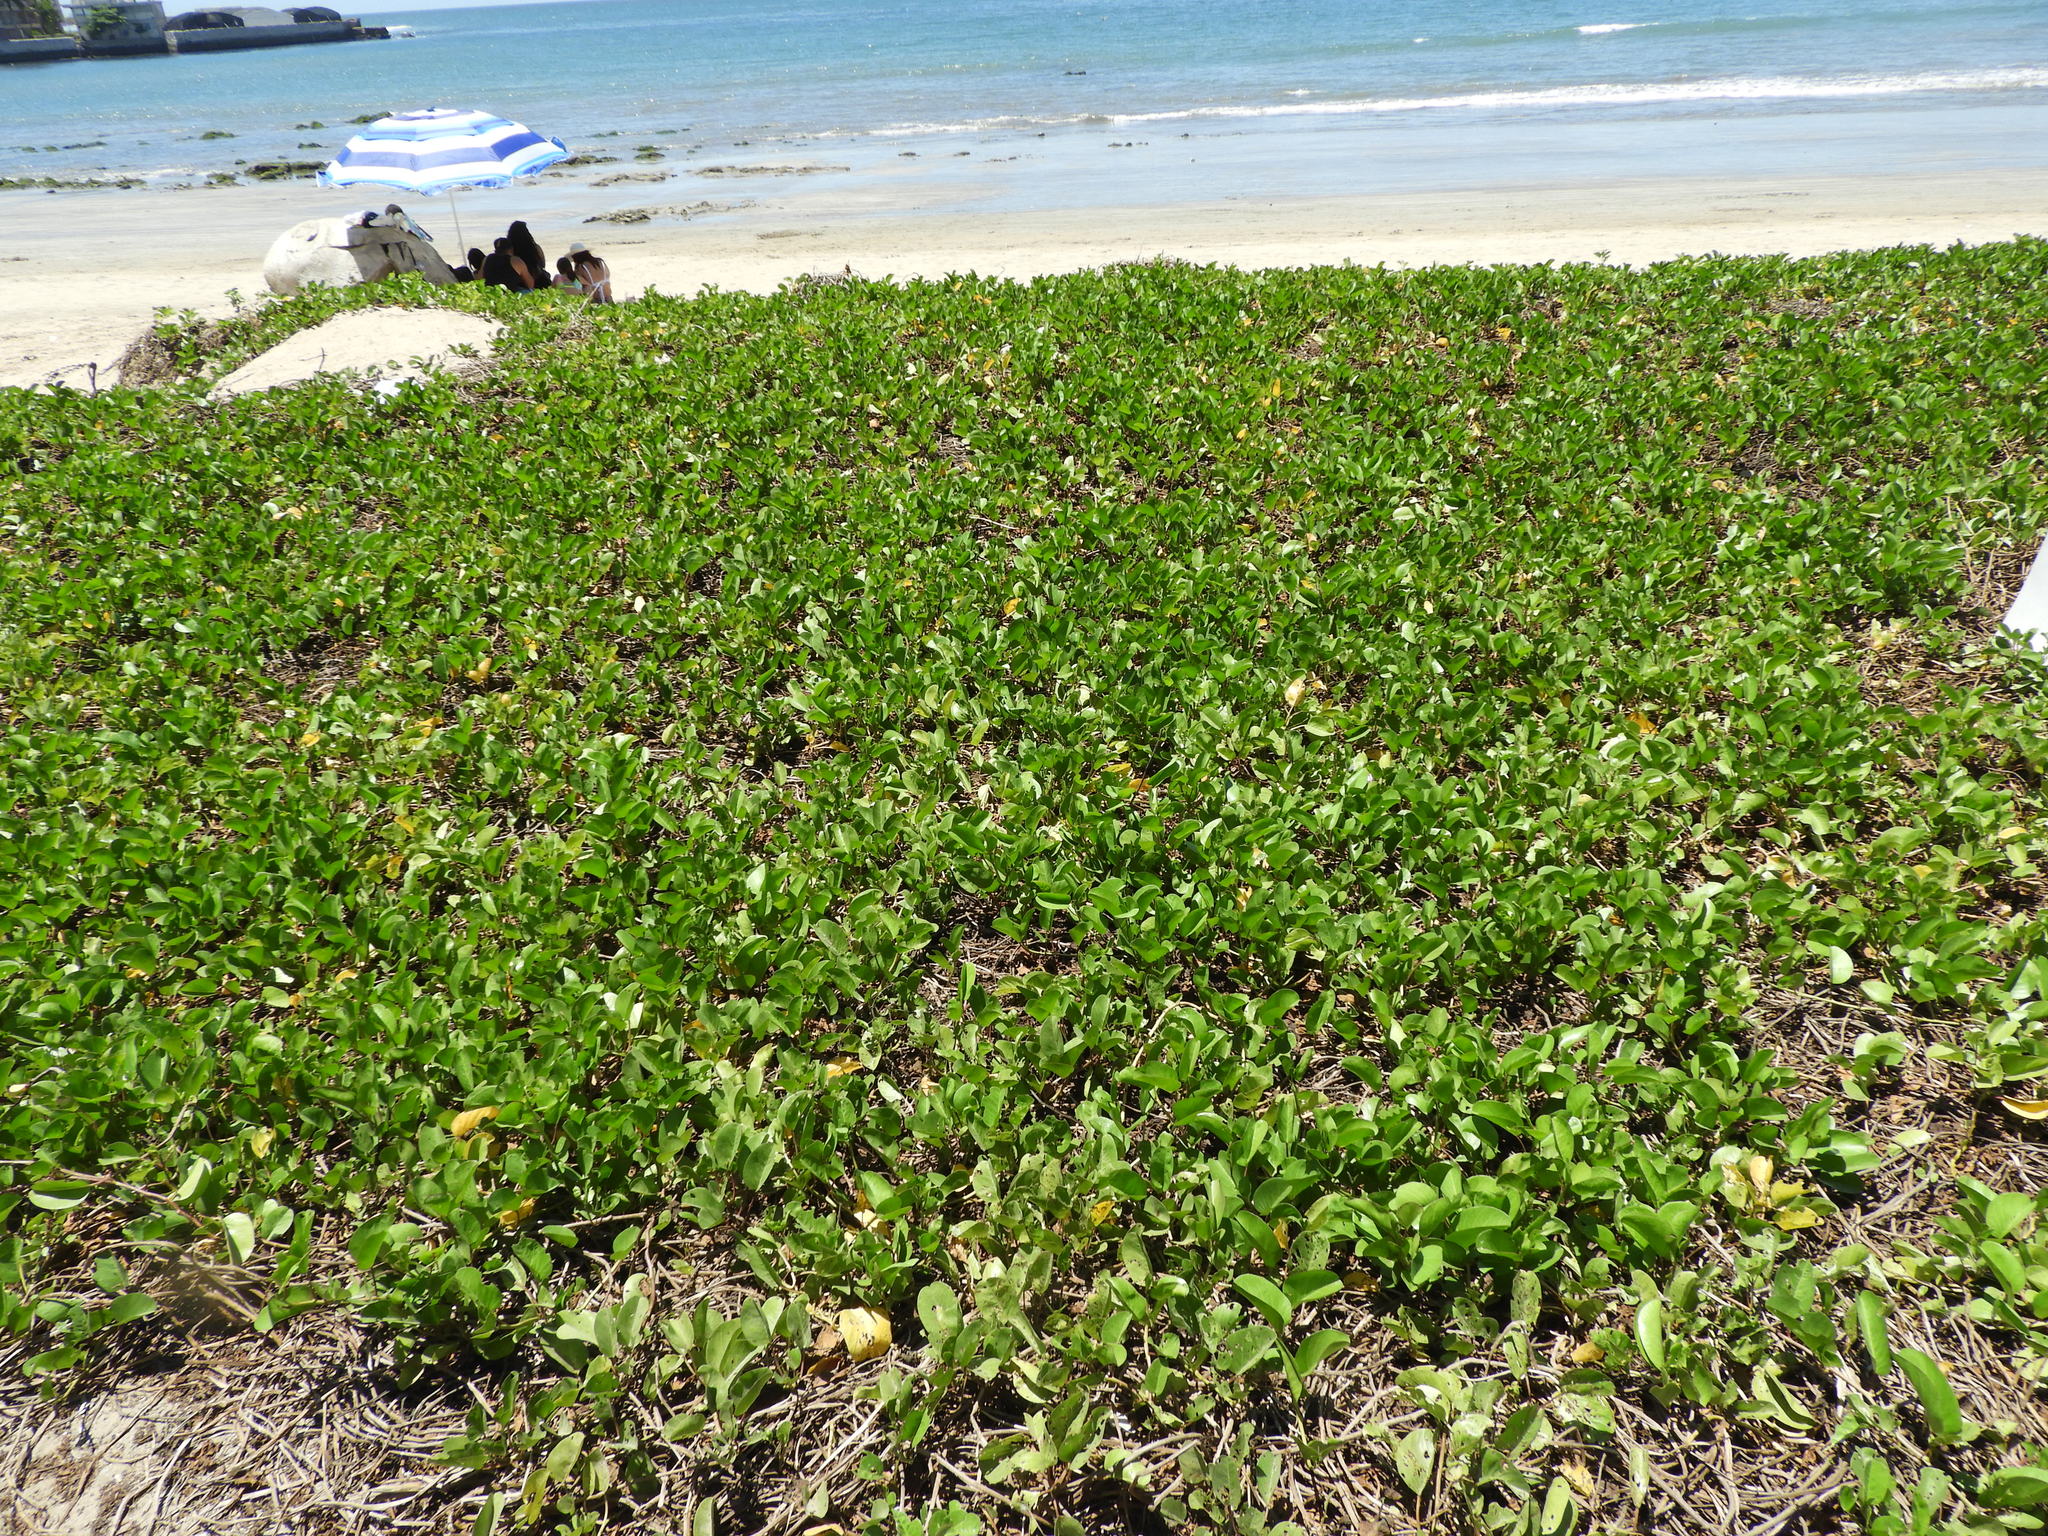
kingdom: Plantae
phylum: Tracheophyta
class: Magnoliopsida
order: Solanales
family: Convolvulaceae
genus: Ipomoea
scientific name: Ipomoea pes-caprae
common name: Beach morning glory
